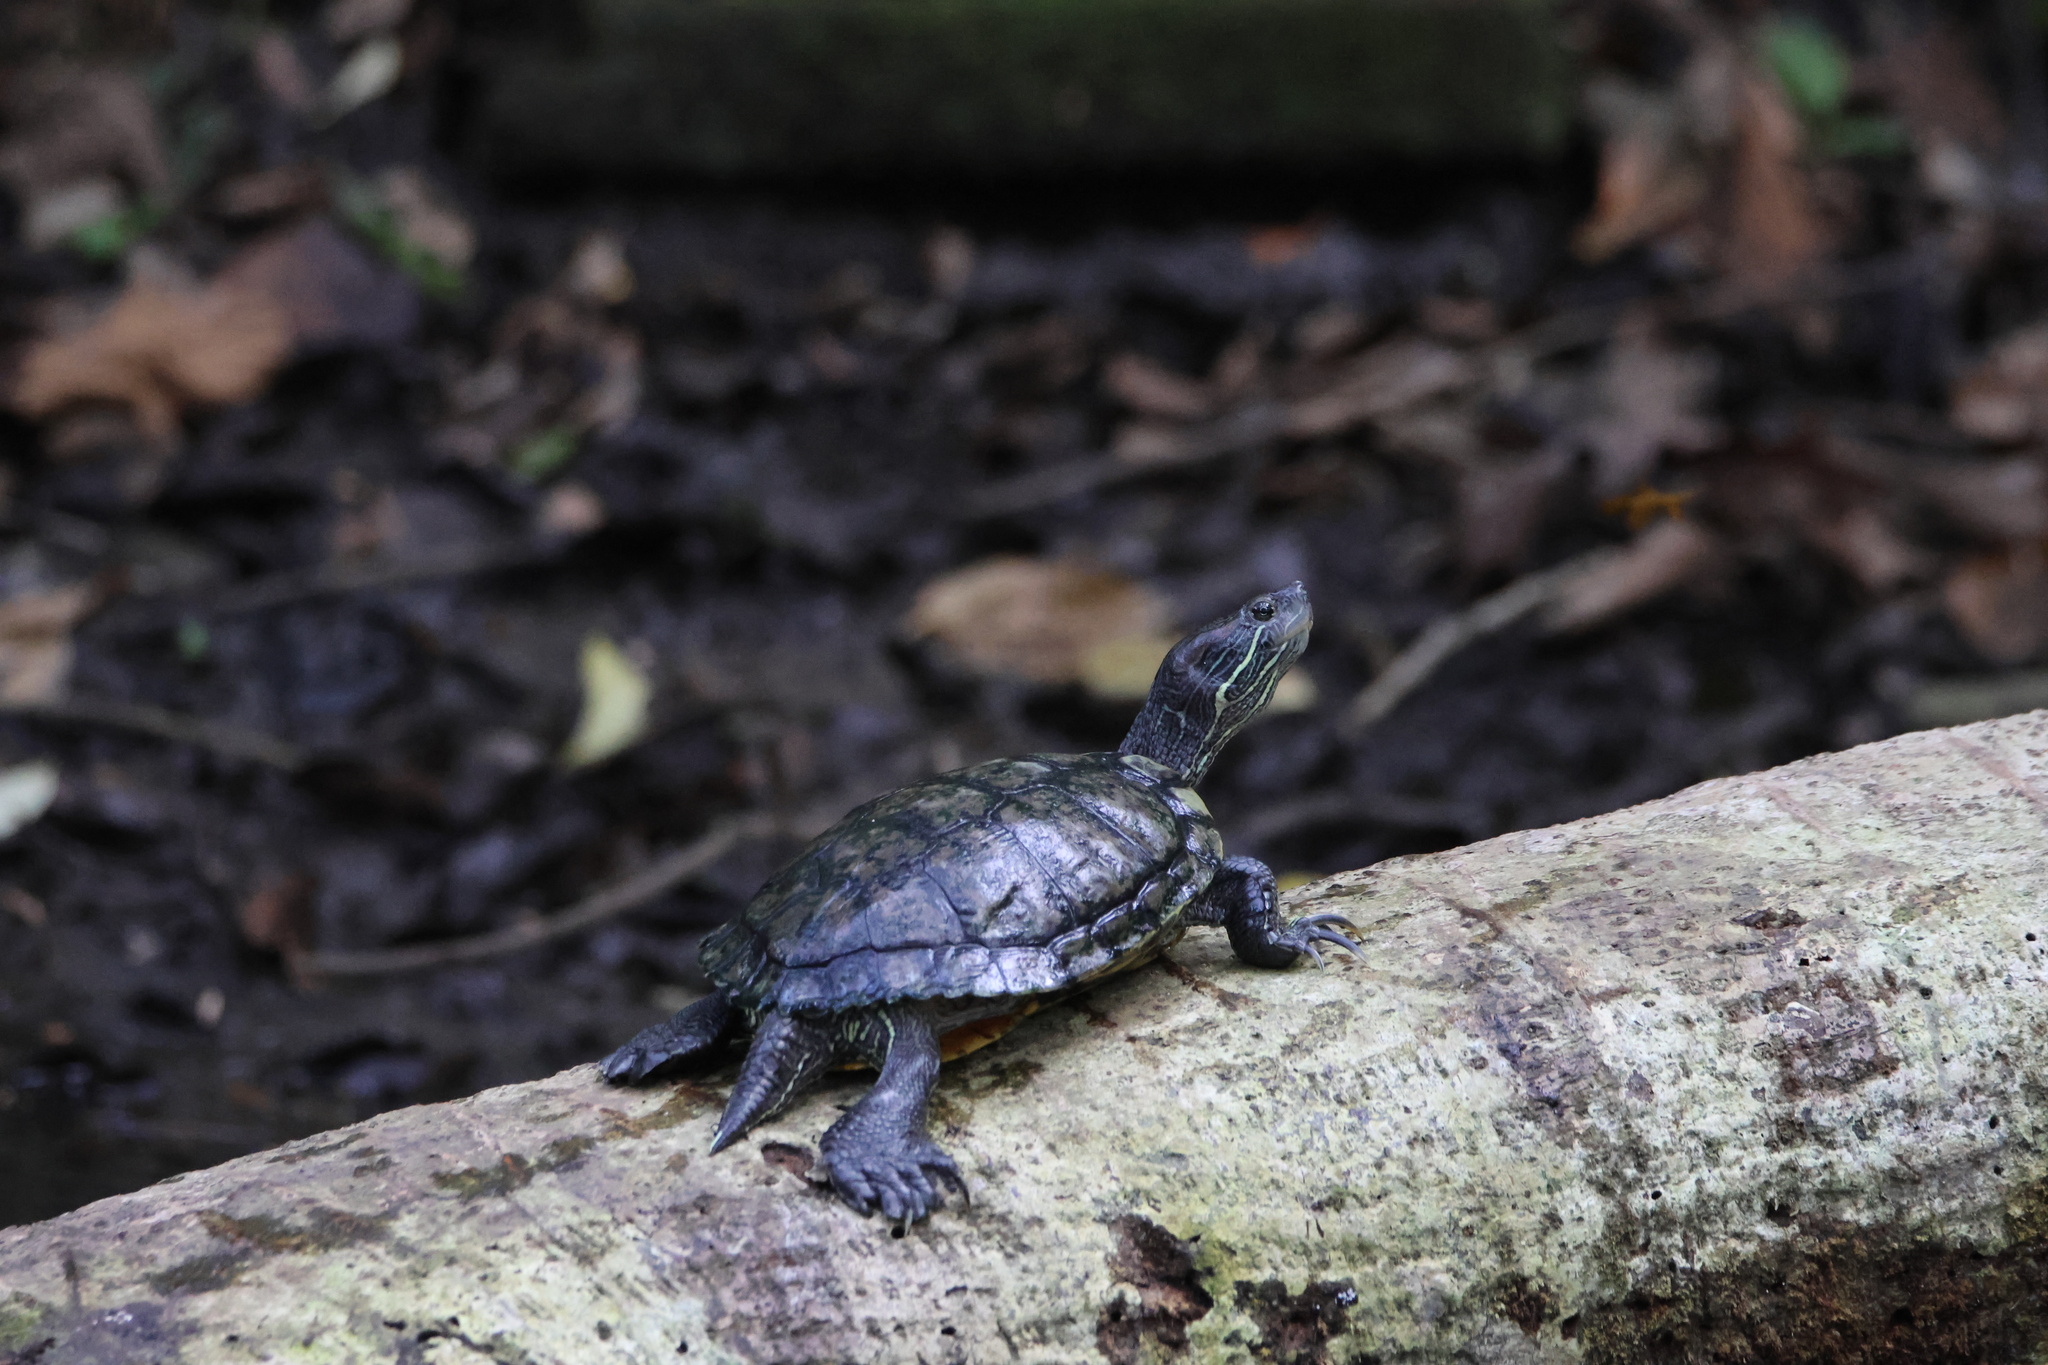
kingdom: Animalia
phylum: Chordata
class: Testudines
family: Emydidae
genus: Trachemys
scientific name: Trachemys venusta
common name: Mesoamerican slider
